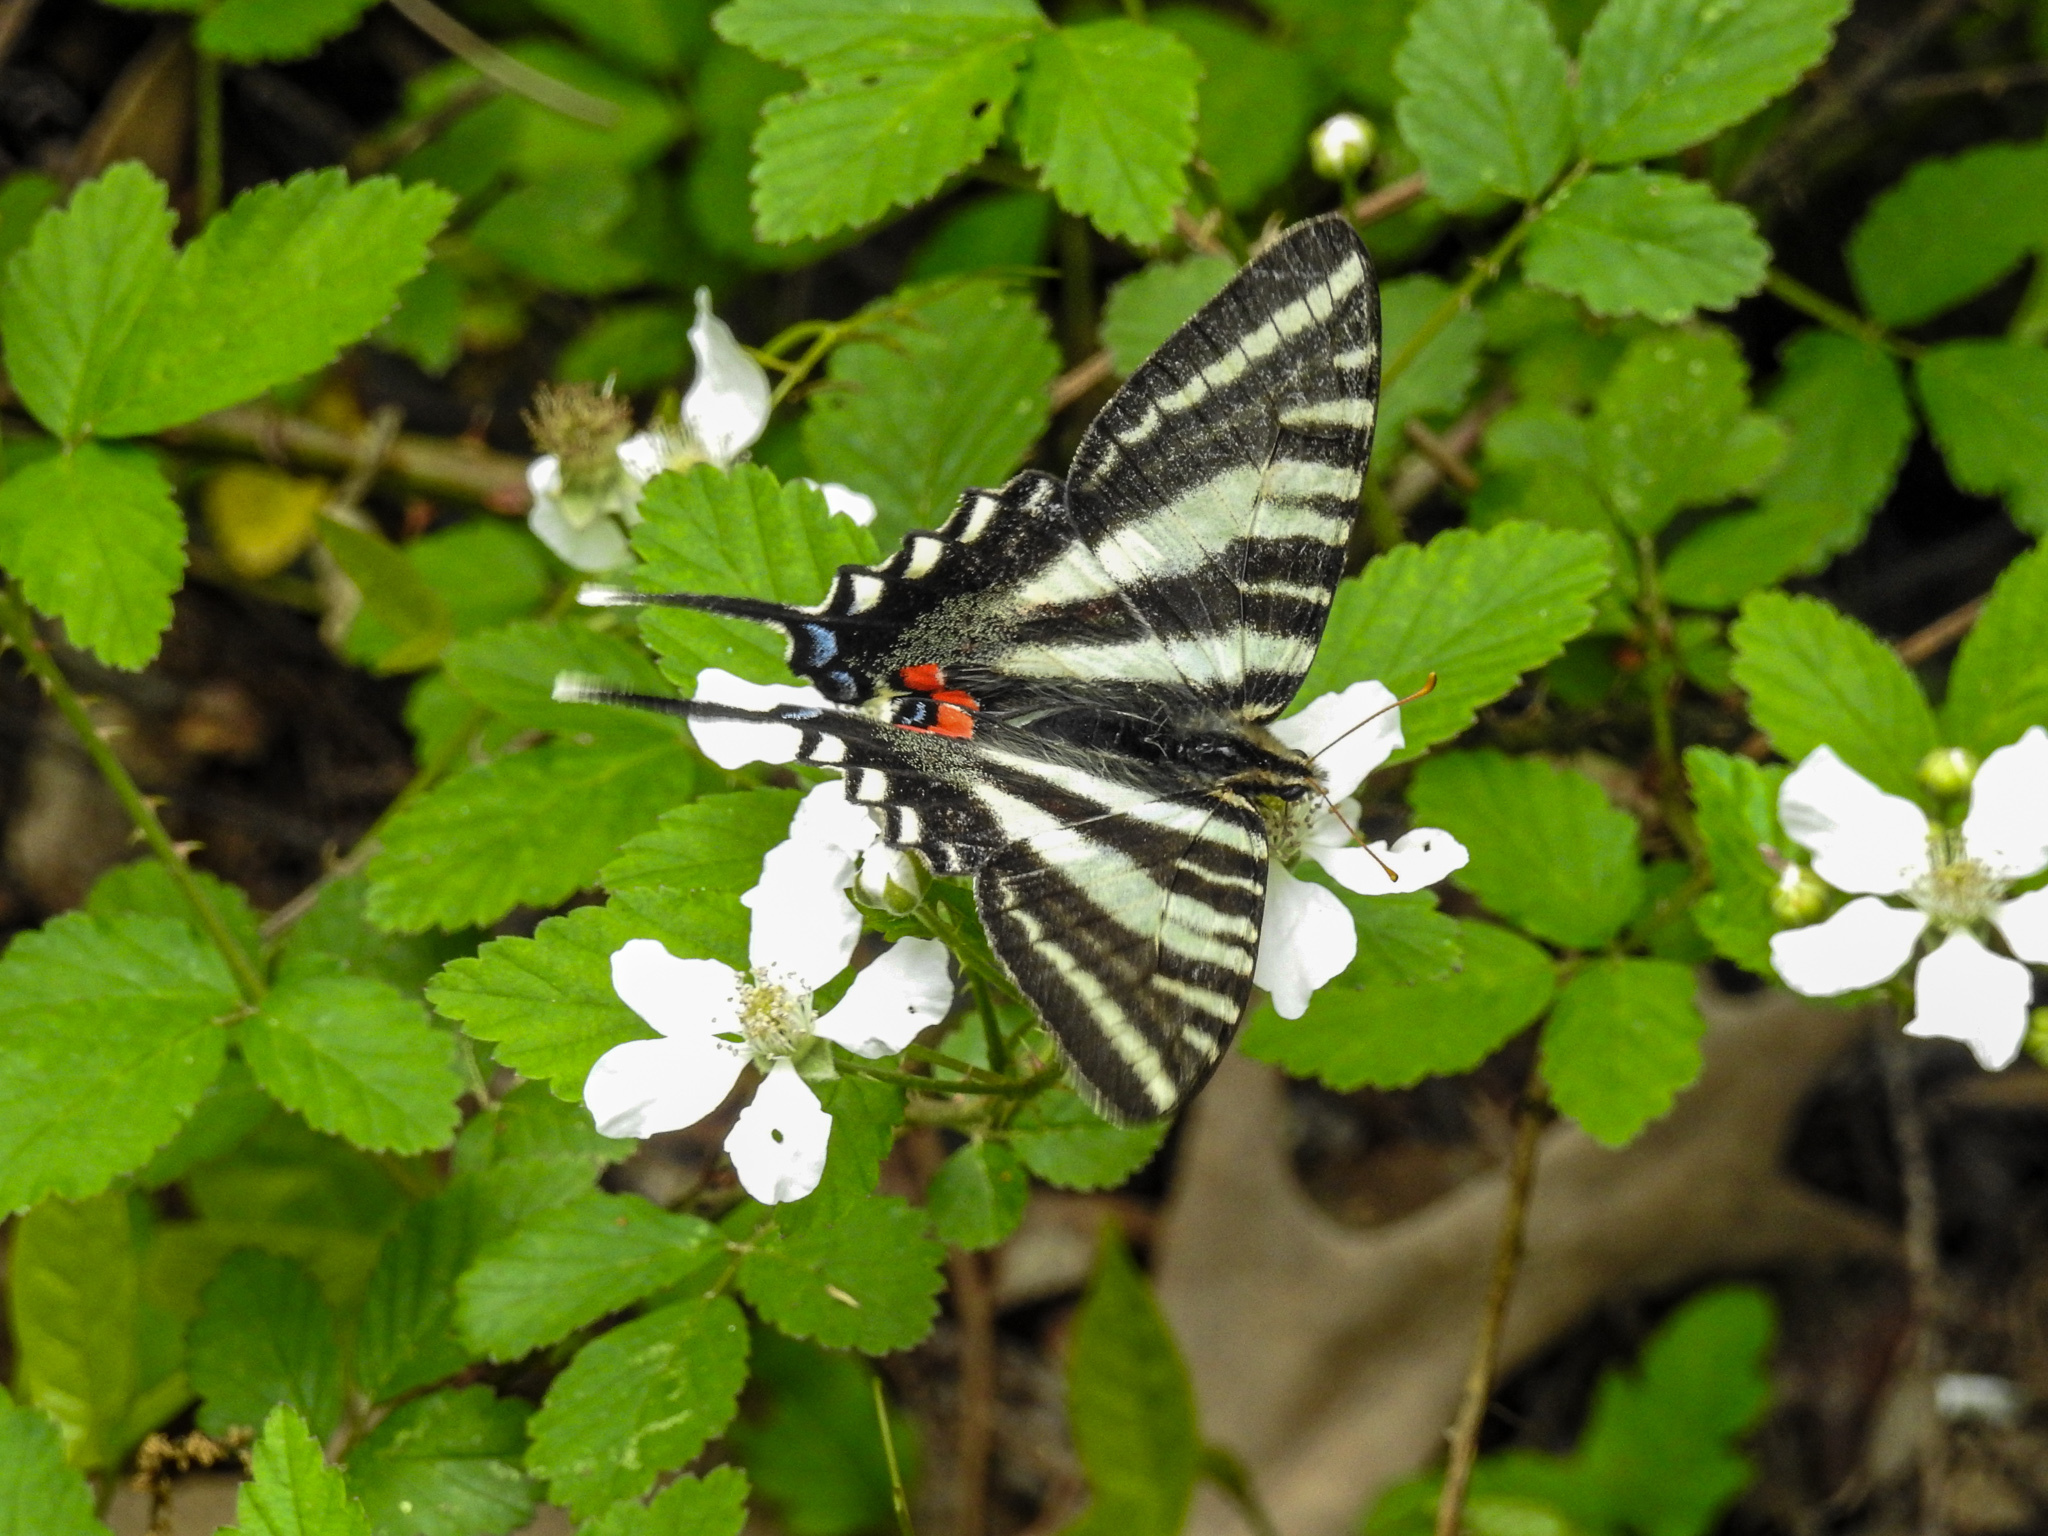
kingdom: Animalia
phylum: Arthropoda
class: Insecta
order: Lepidoptera
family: Papilionidae
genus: Protographium
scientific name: Protographium marcellus
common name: Zebra swallowtail
